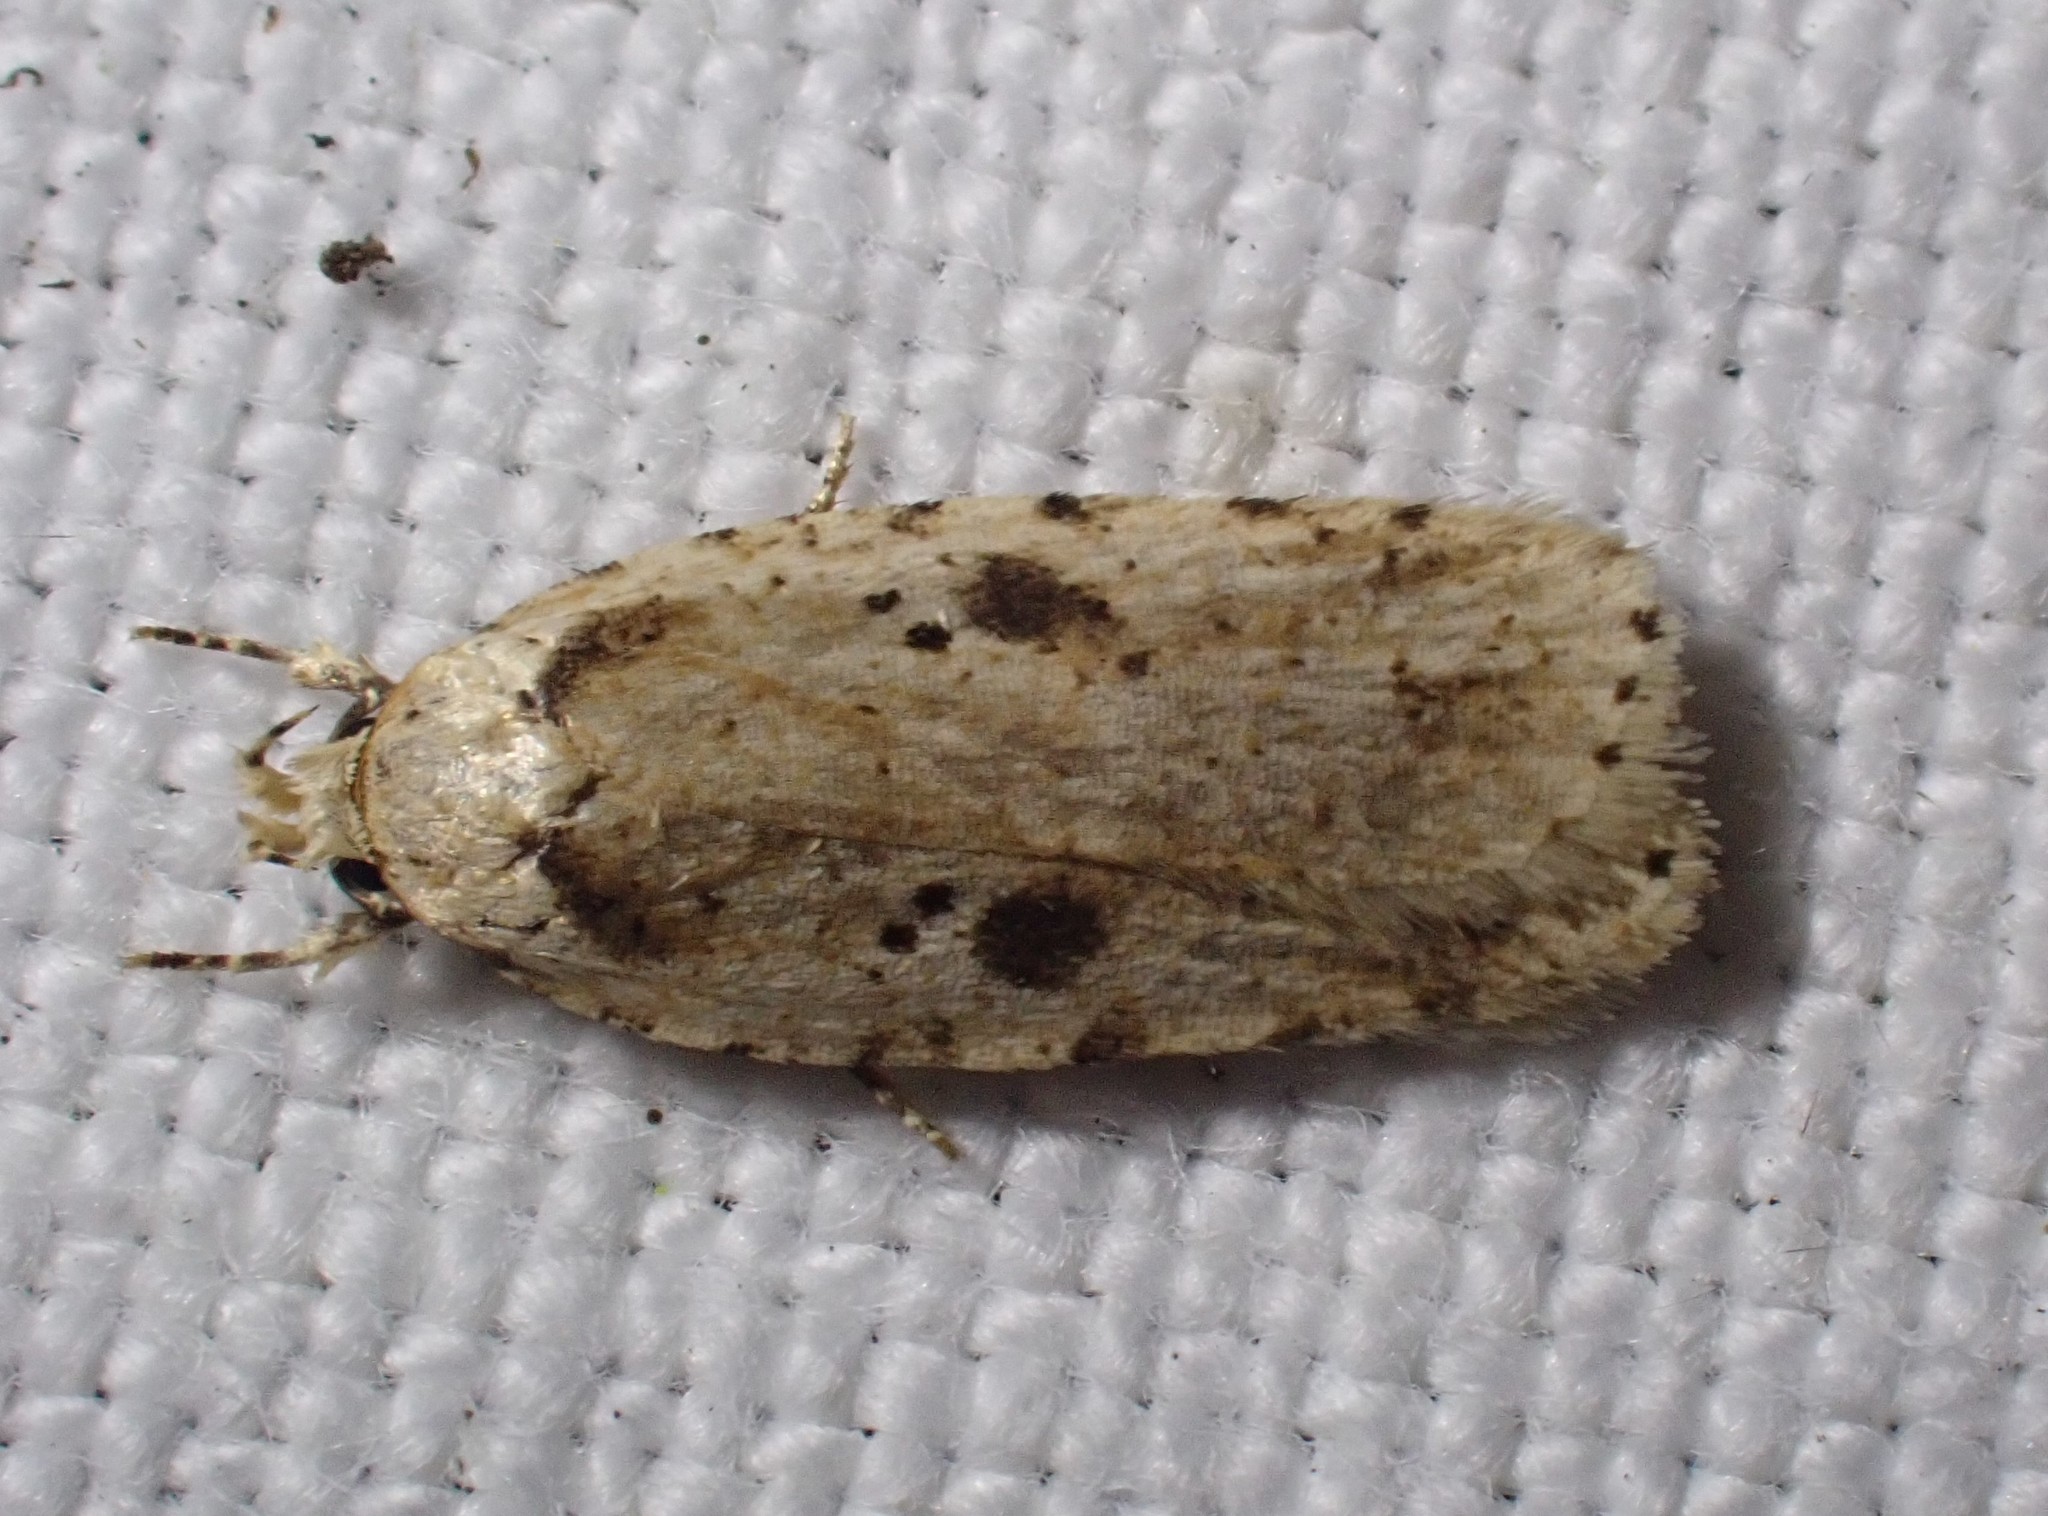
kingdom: Animalia
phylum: Arthropoda
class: Insecta
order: Lepidoptera
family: Depressariidae
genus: Agonopterix
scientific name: Agonopterix arenella
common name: Brindled flat-body
